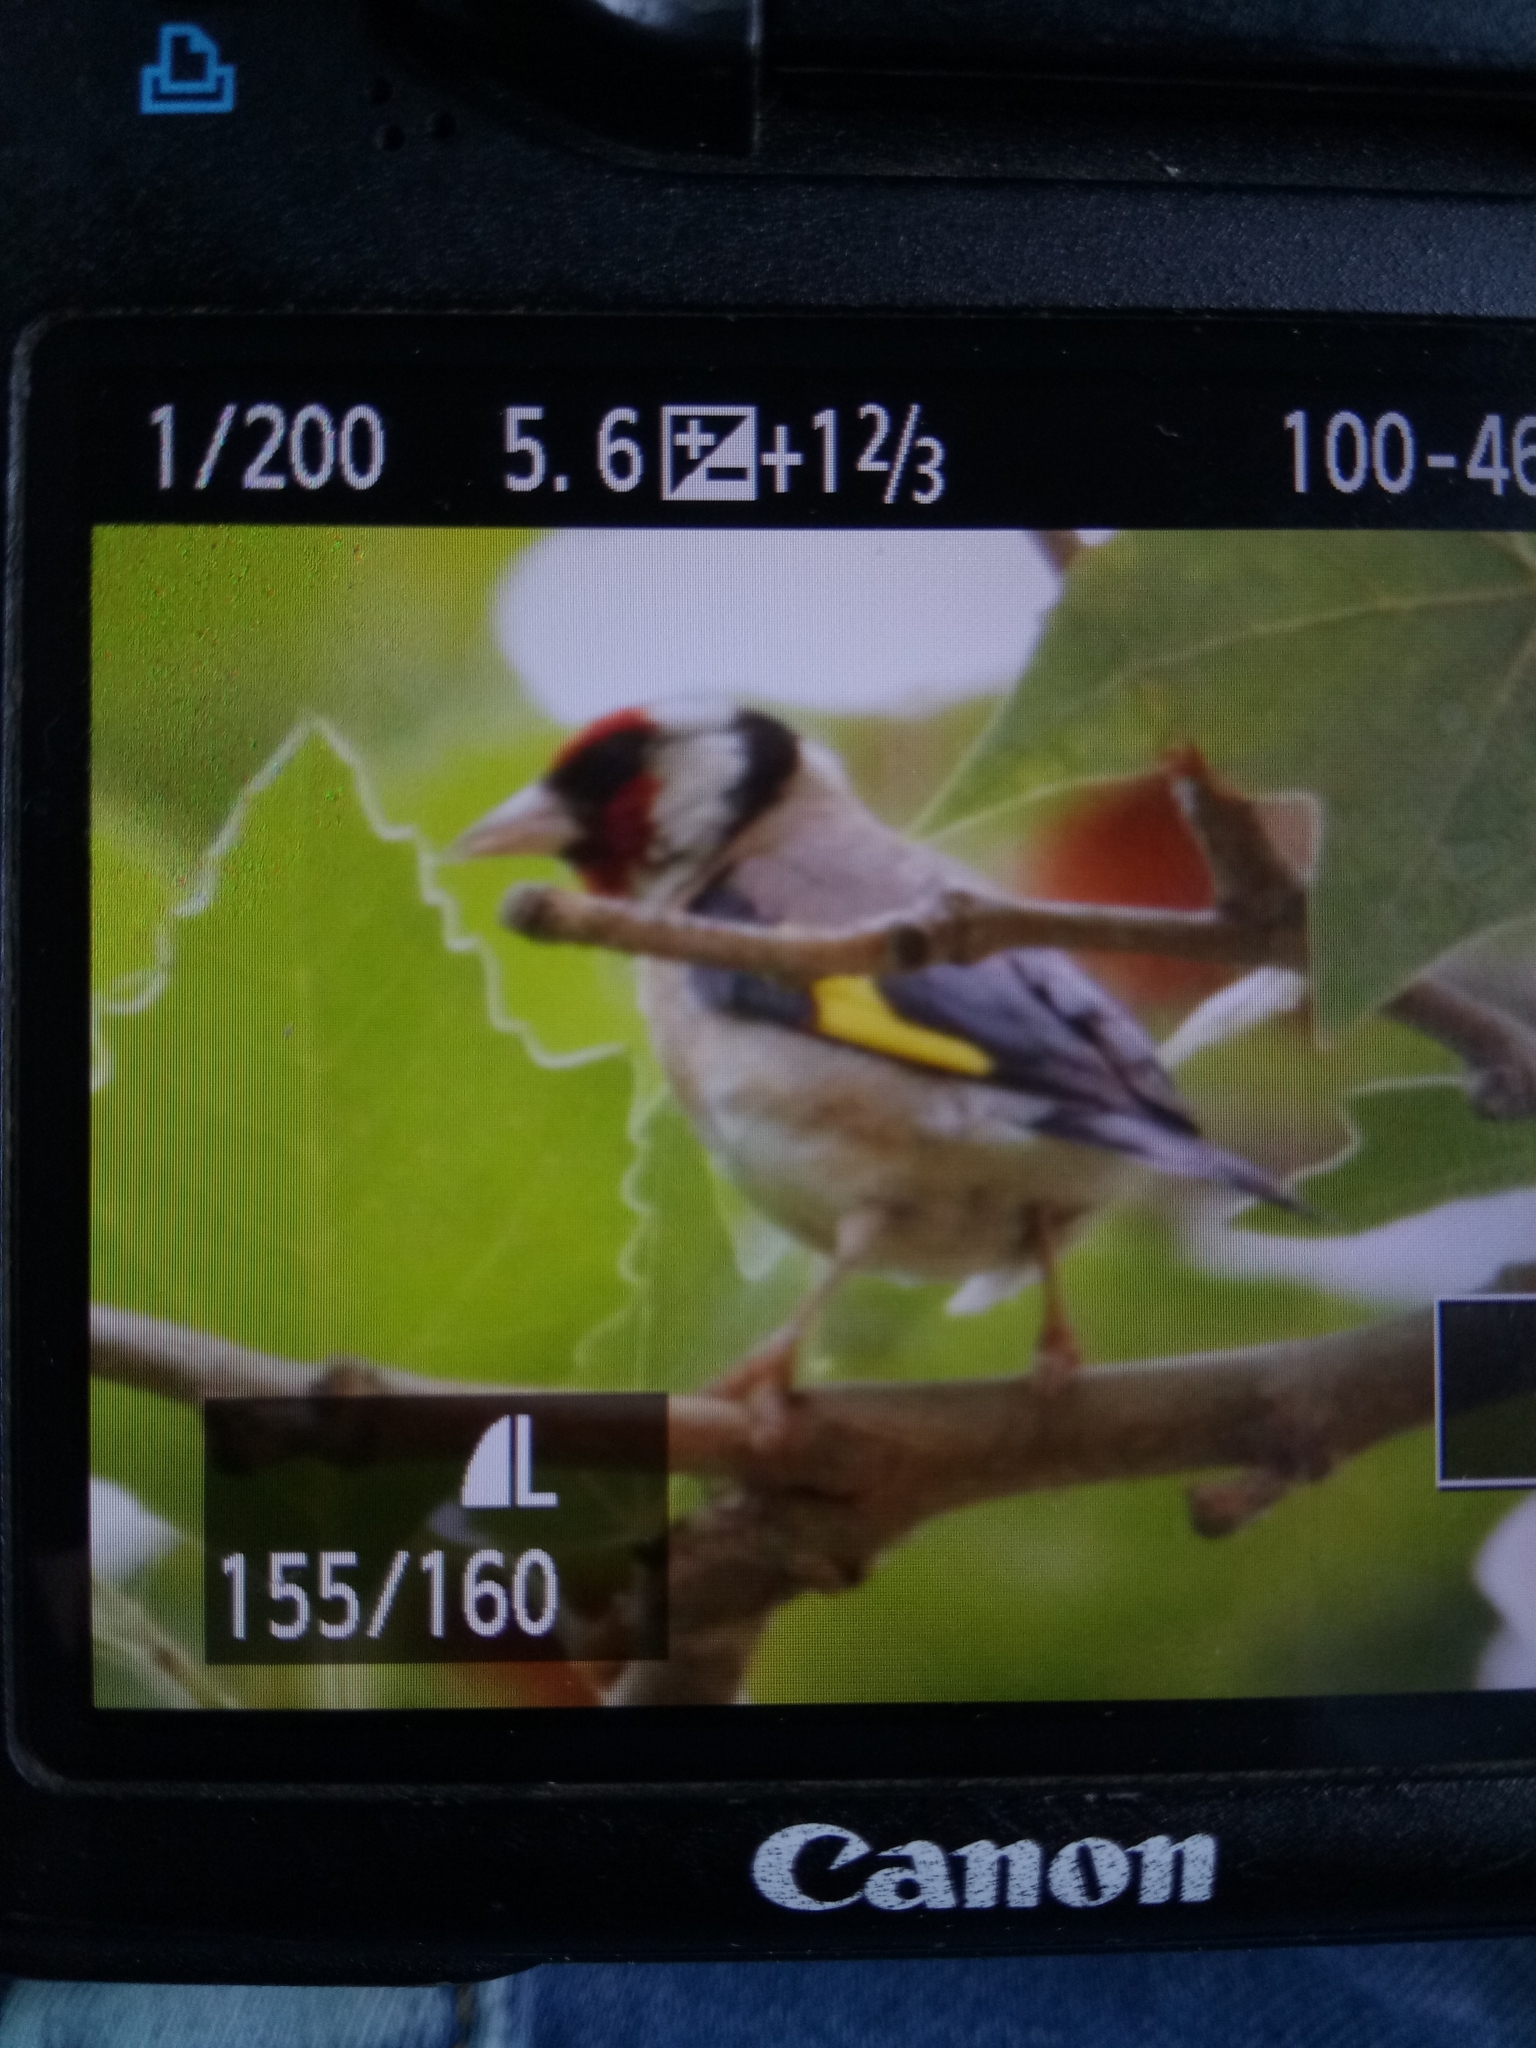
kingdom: Animalia
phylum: Chordata
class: Aves
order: Passeriformes
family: Fringillidae
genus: Carduelis
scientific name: Carduelis carduelis
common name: European goldfinch
